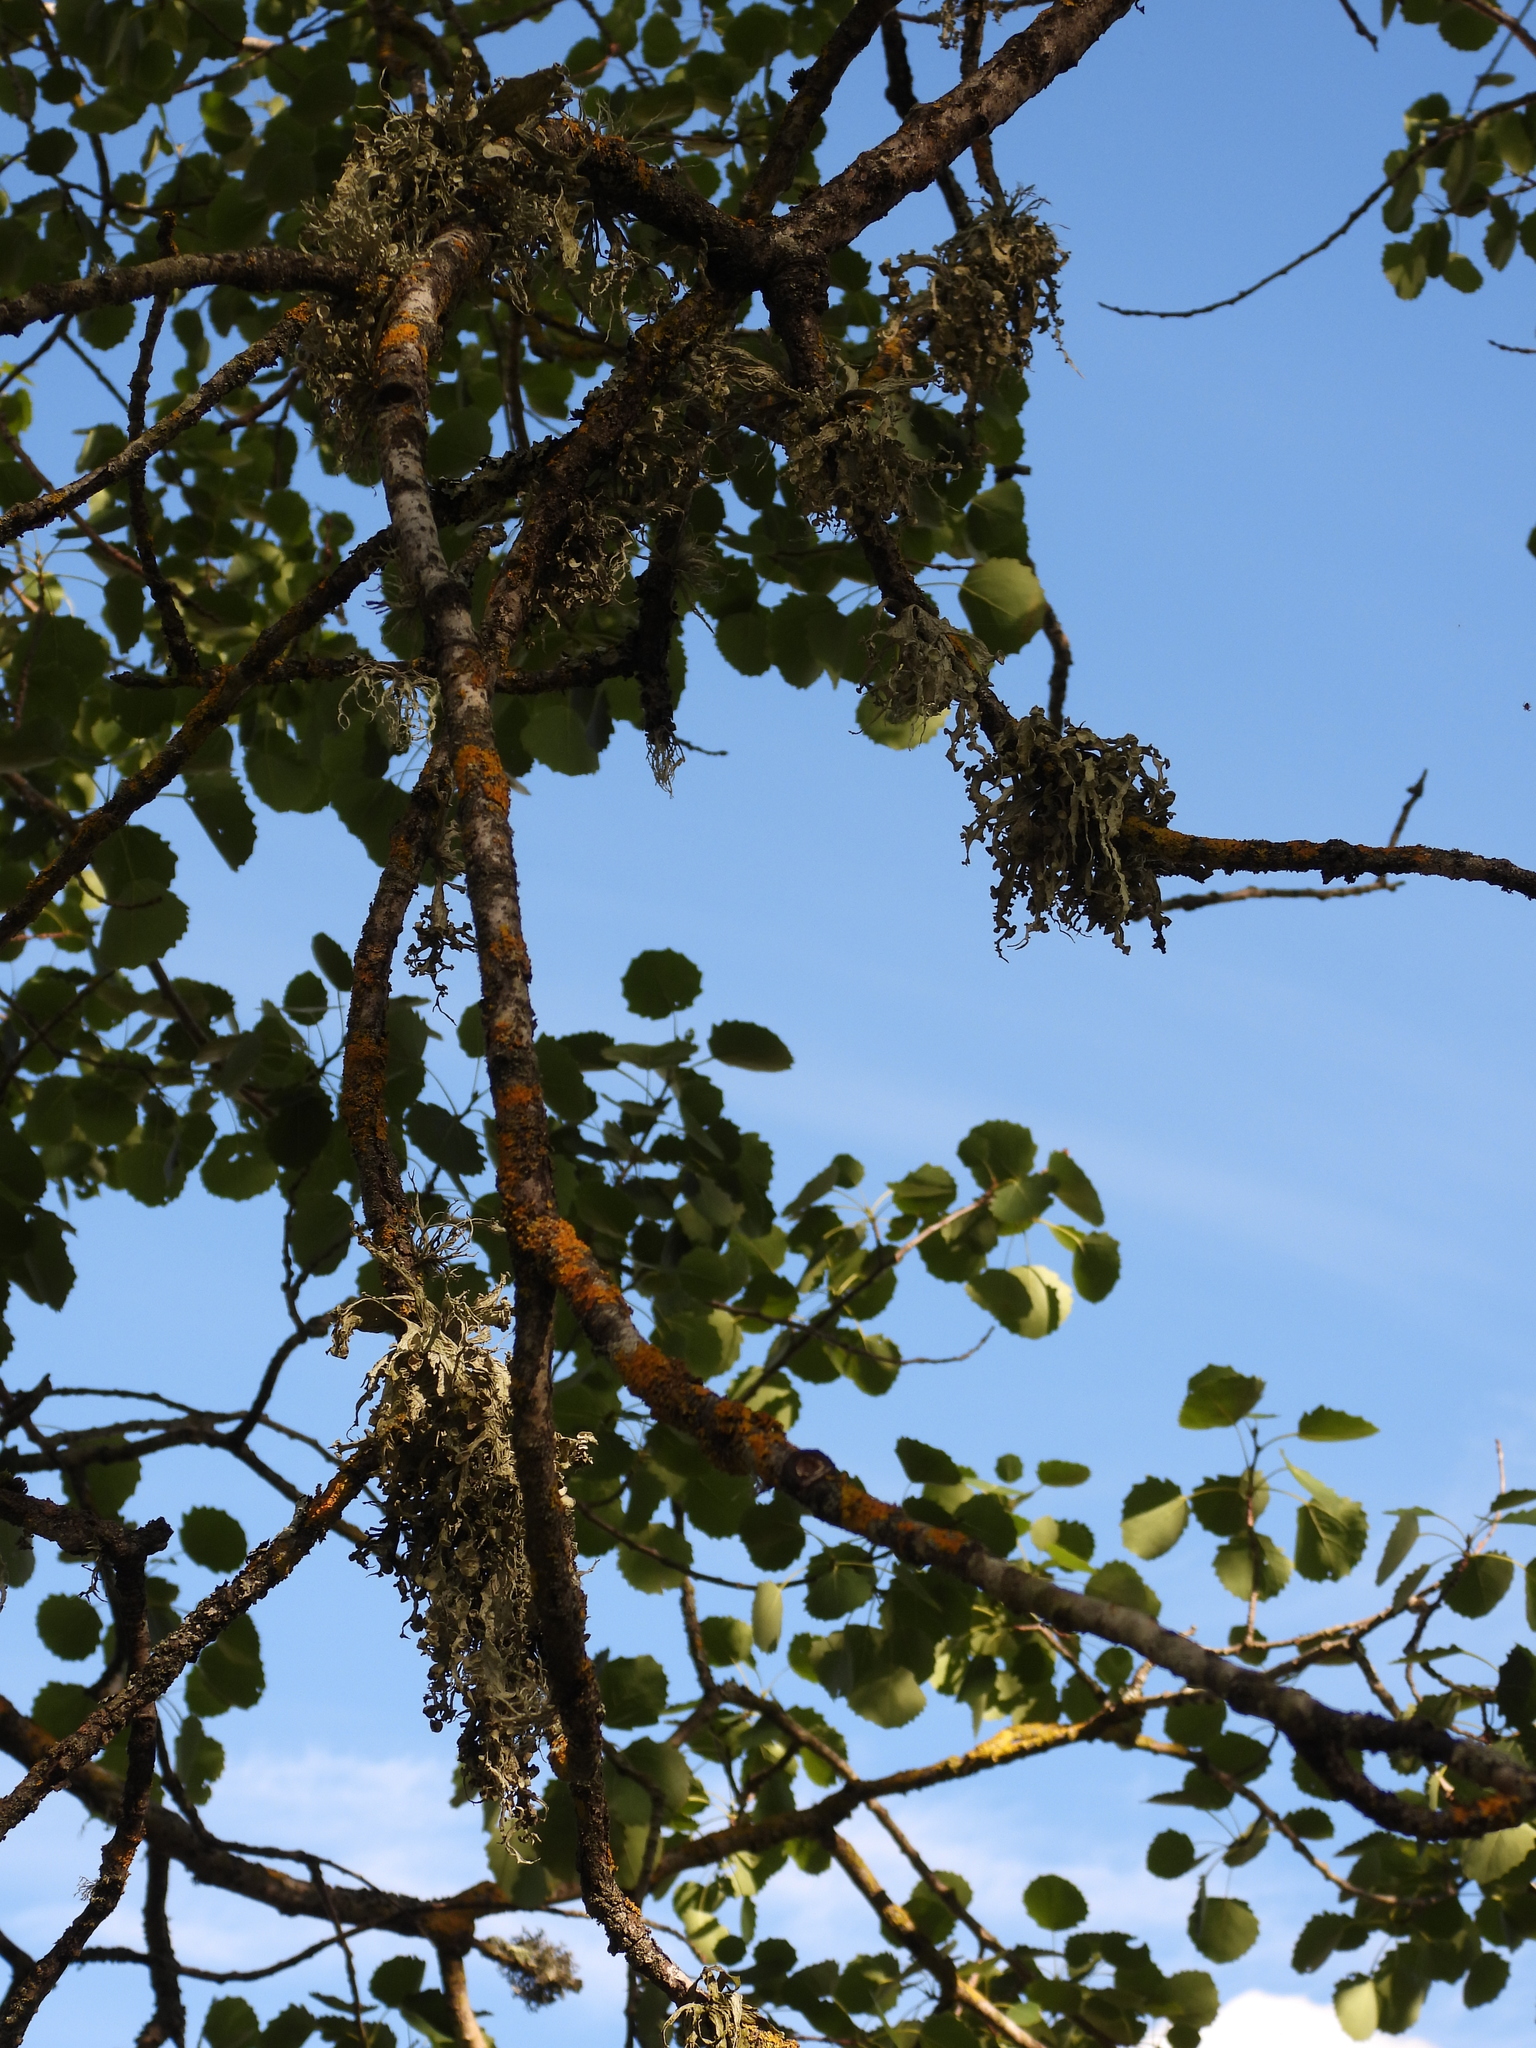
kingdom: Fungi
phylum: Ascomycota
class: Lecanoromycetes
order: Lecanorales
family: Ramalinaceae
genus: Ramalina
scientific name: Ramalina fraxinea
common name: Cartilage lichen
